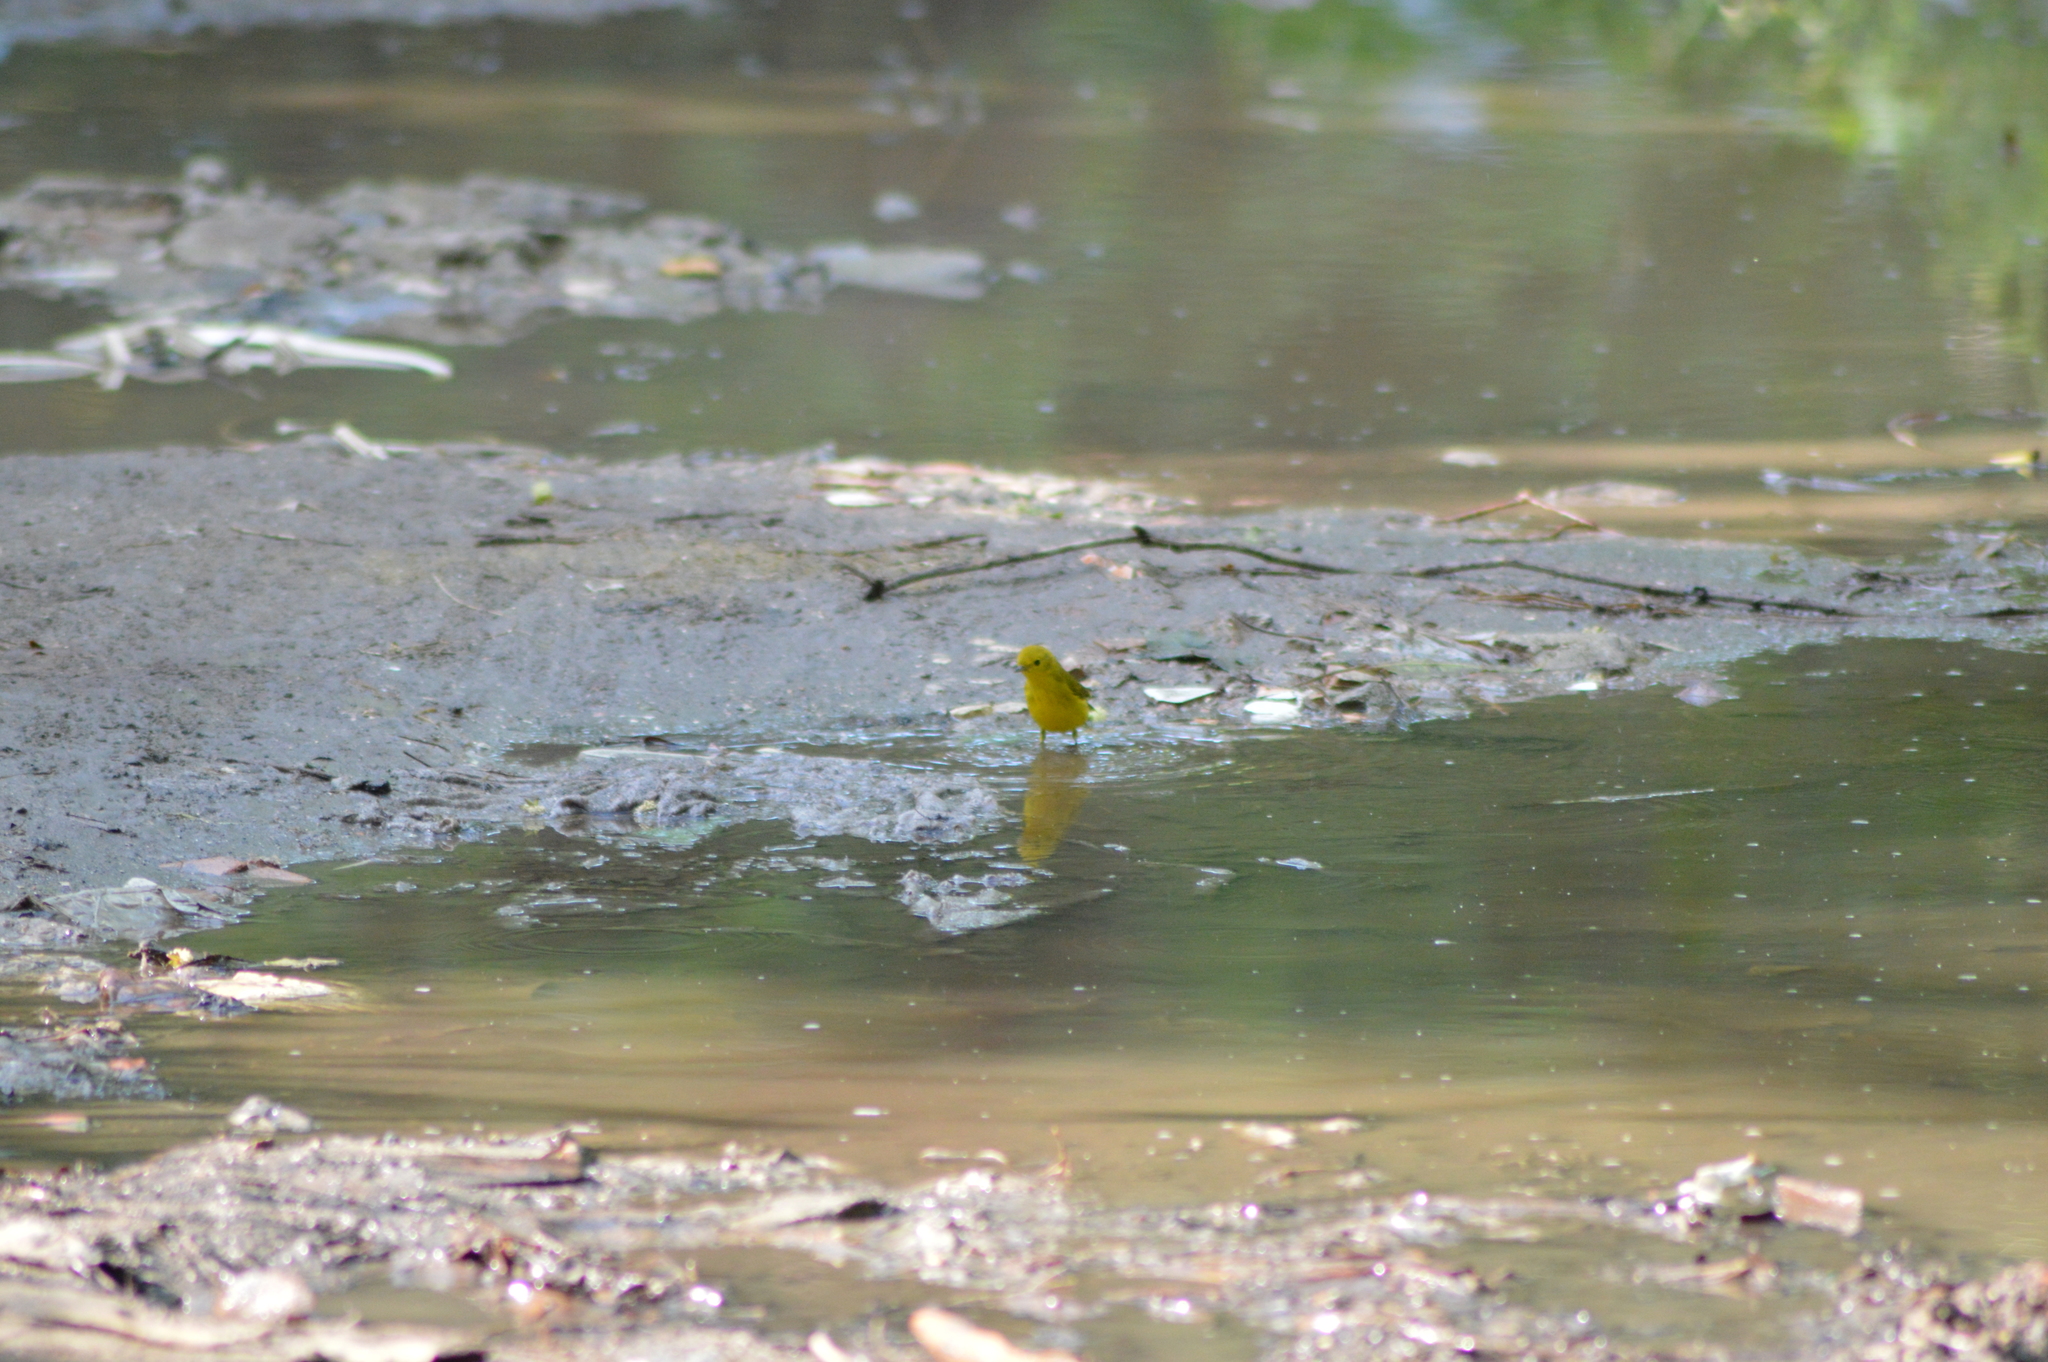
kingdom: Animalia
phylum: Chordata
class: Aves
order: Passeriformes
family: Parulidae
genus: Setophaga
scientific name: Setophaga petechia
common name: Yellow warbler
